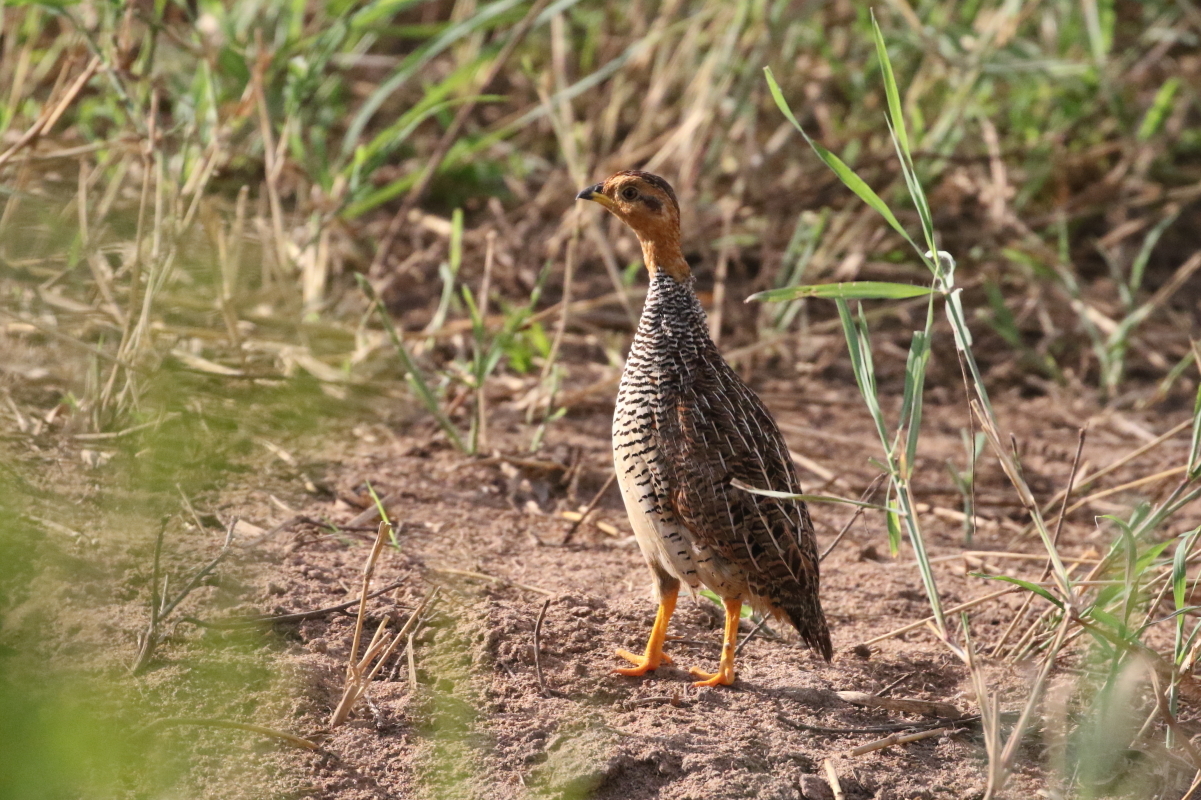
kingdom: Animalia
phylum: Chordata
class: Aves
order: Galliformes
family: Phasianidae
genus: Campocolinus
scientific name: Campocolinus coqui
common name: Coqui francolin
